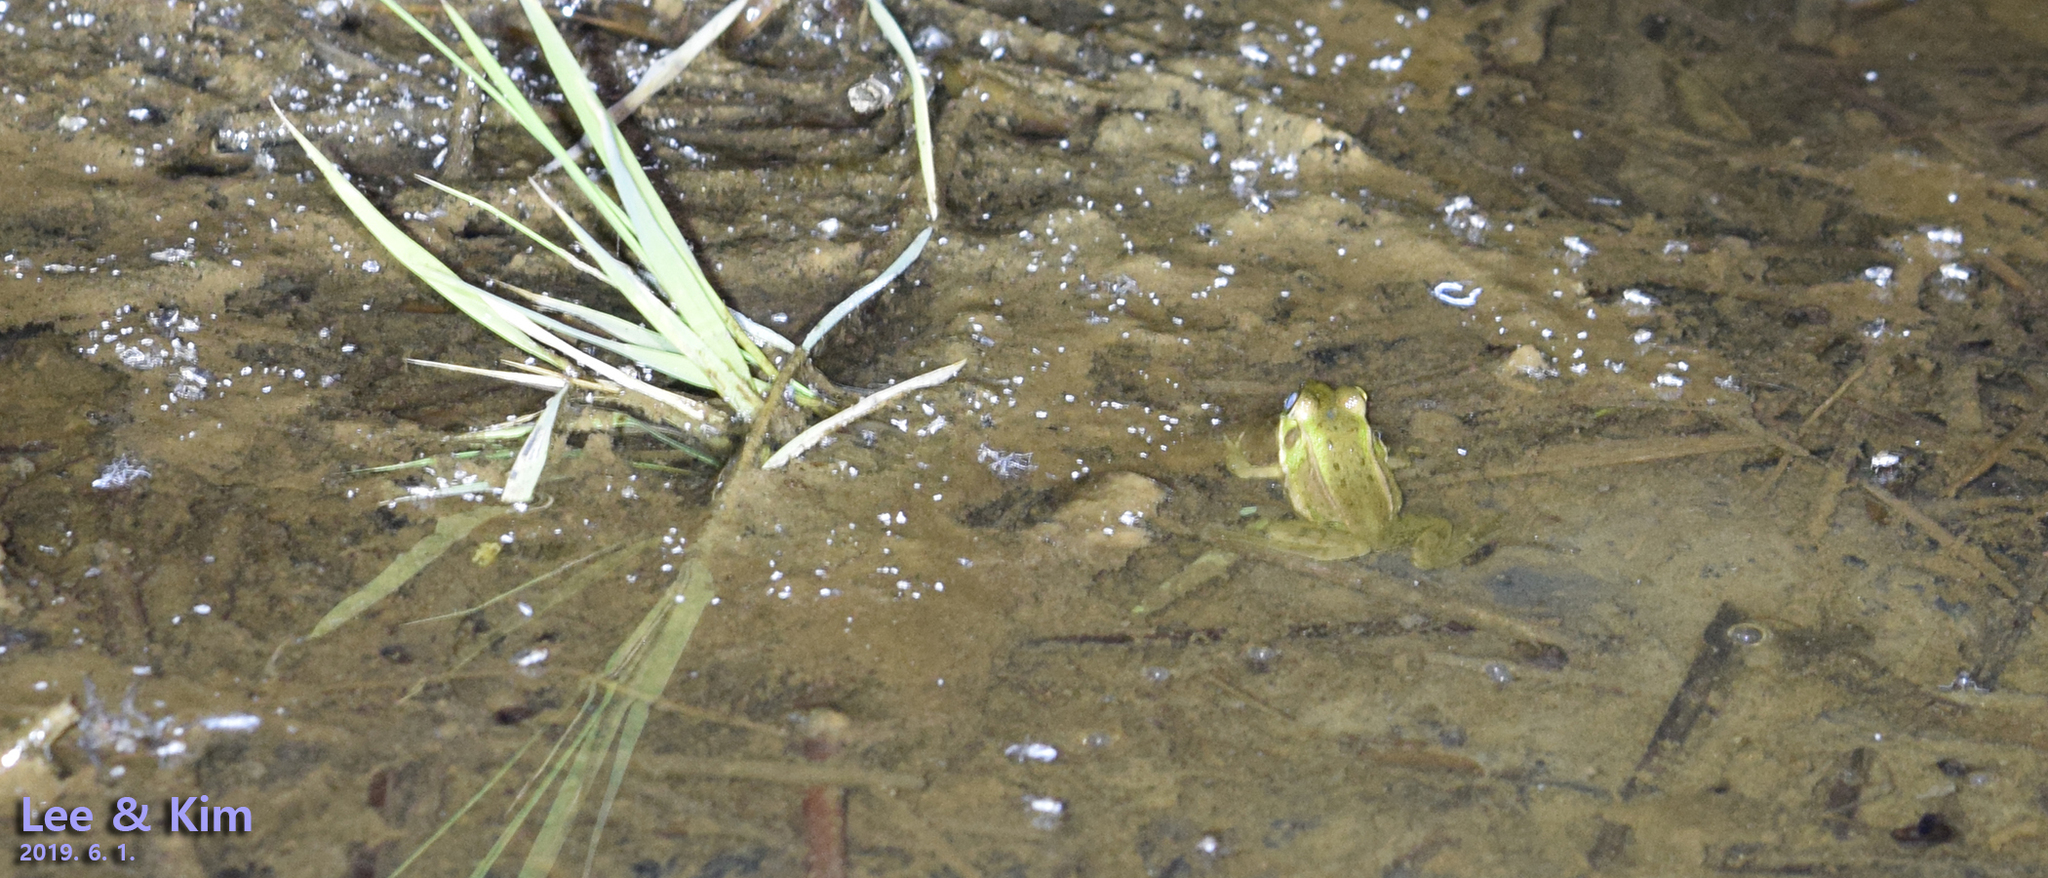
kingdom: Animalia
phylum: Chordata
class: Amphibia
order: Anura
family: Ranidae
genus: Pelophylax
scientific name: Pelophylax chosenicus
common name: Gold-spotted pond frog
